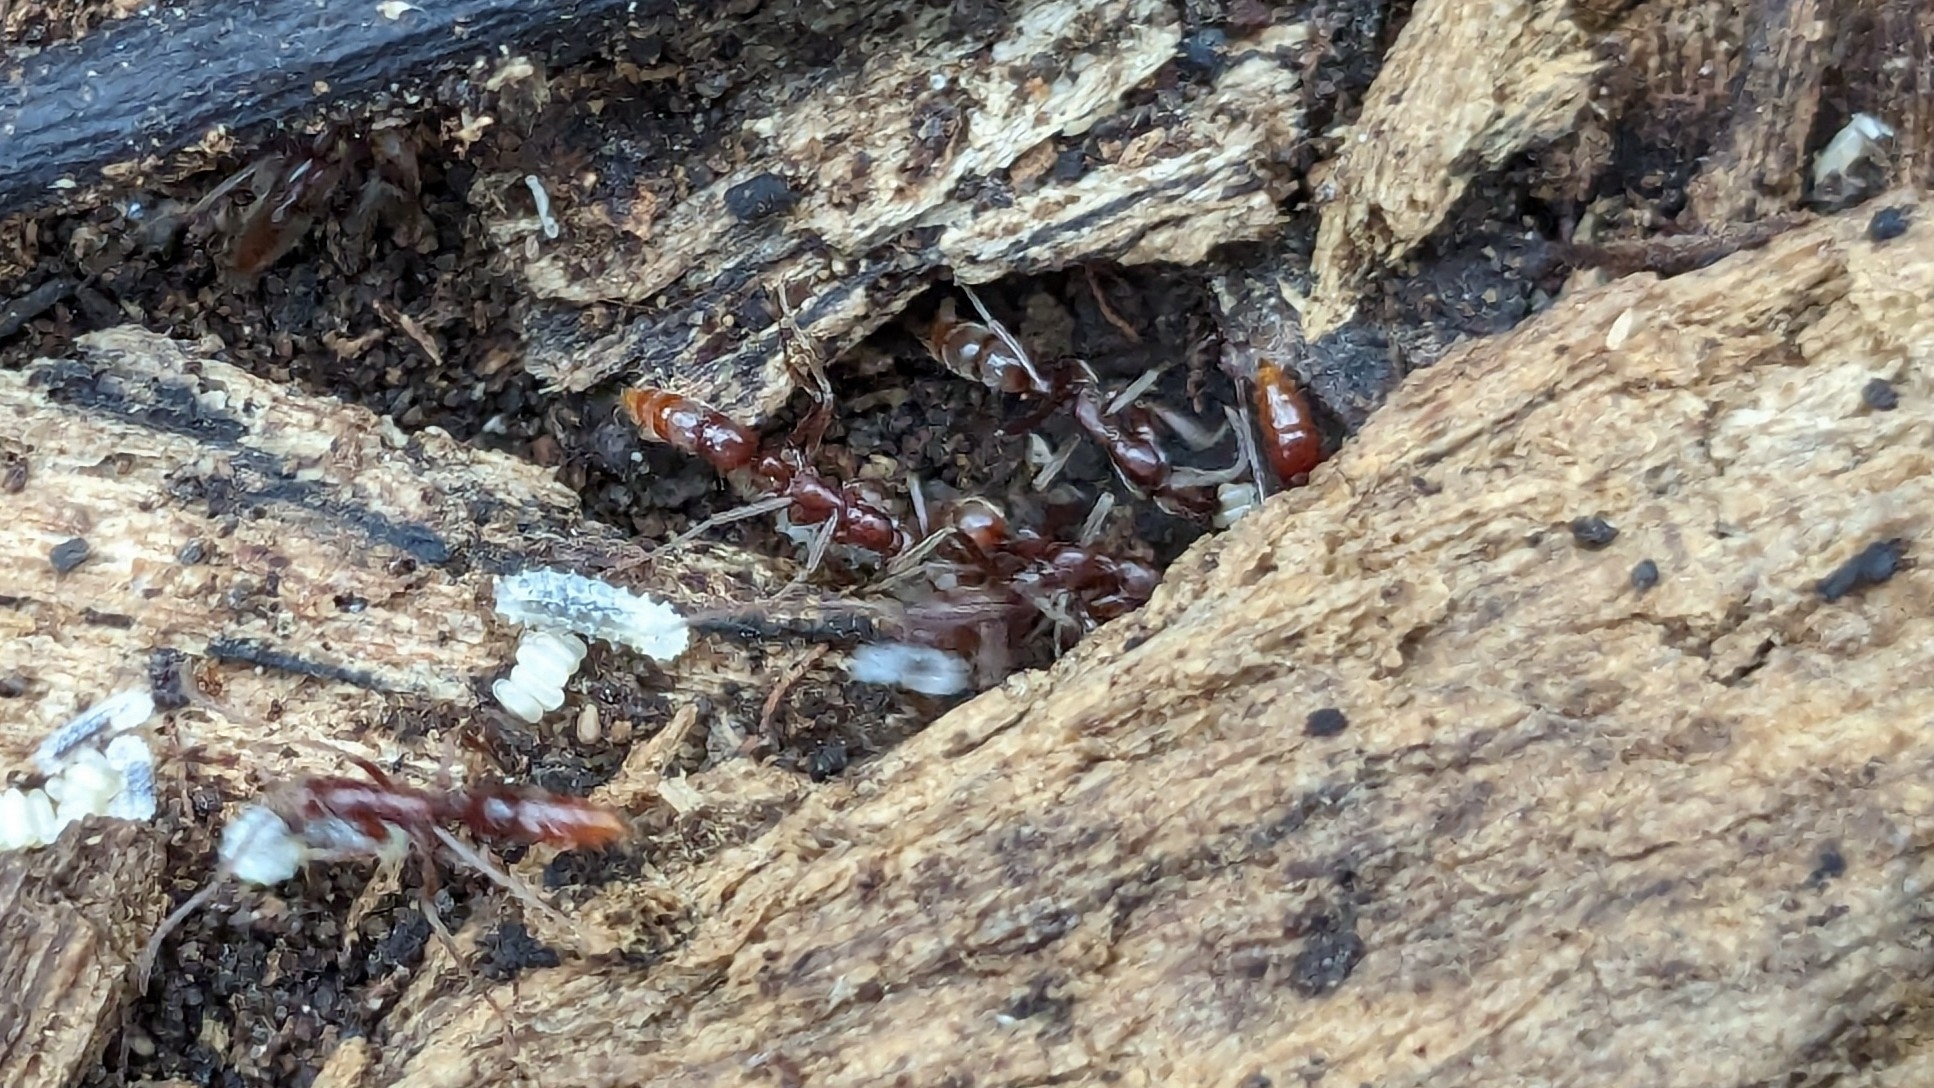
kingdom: Animalia
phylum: Arthropoda
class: Insecta
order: Hymenoptera
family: Formicidae
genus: Leptogenys
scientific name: Leptogenys elongata
